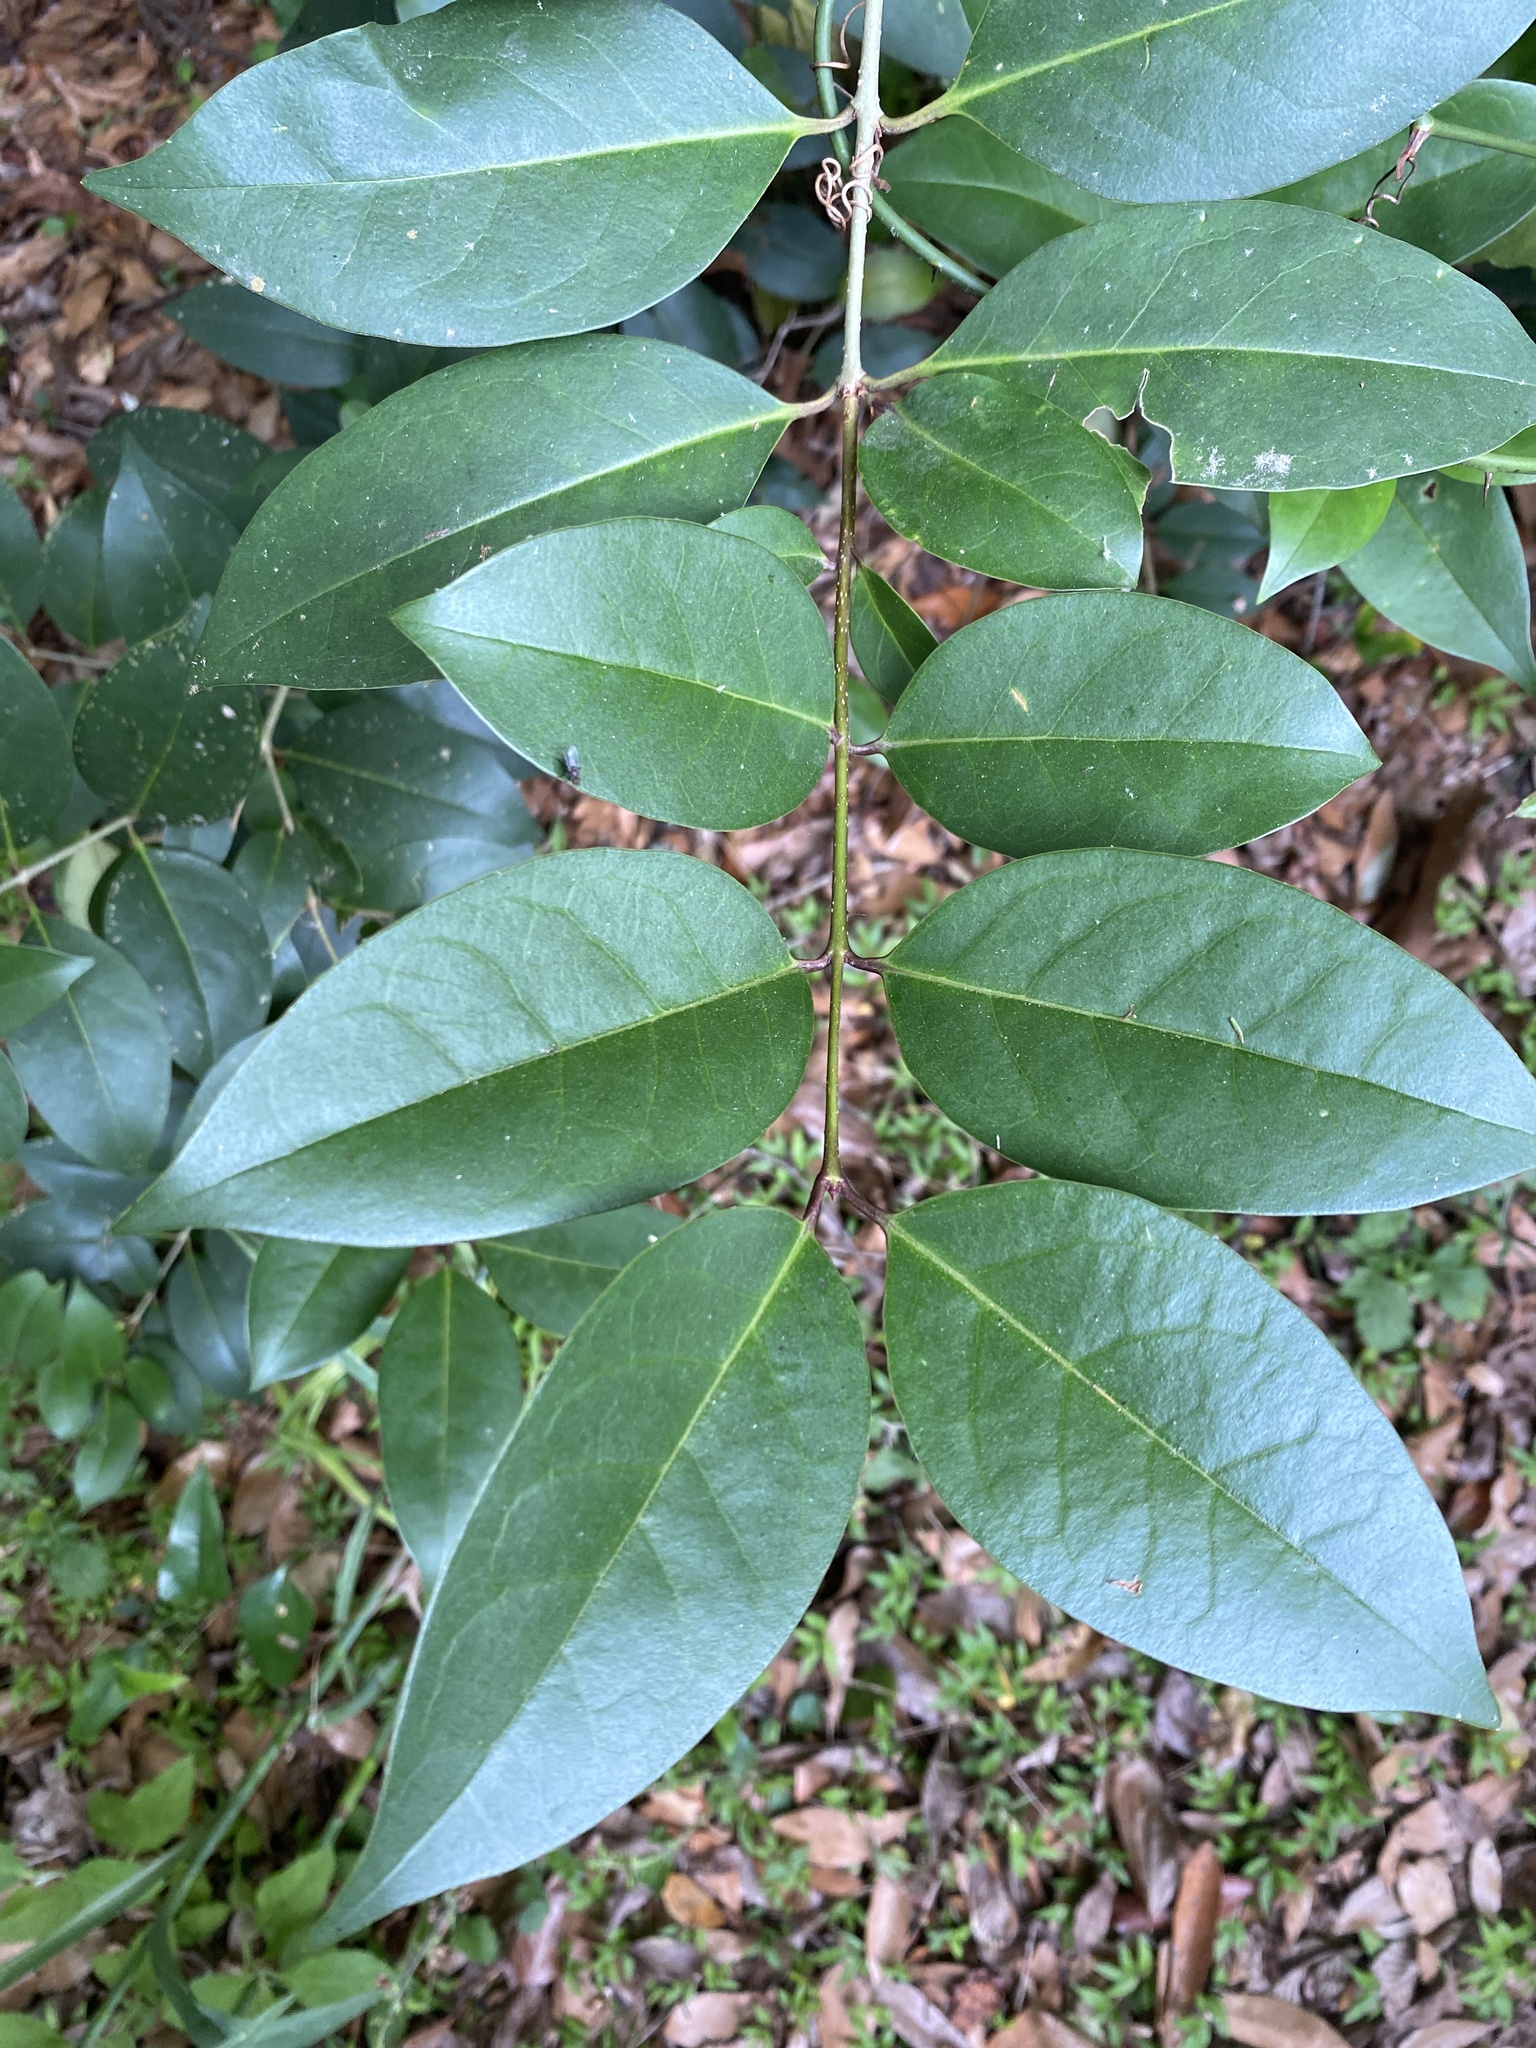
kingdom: Plantae
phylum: Tracheophyta
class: Magnoliopsida
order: Lamiales
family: Oleaceae
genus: Ligustrum
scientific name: Ligustrum lucidum
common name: Glossy privet
